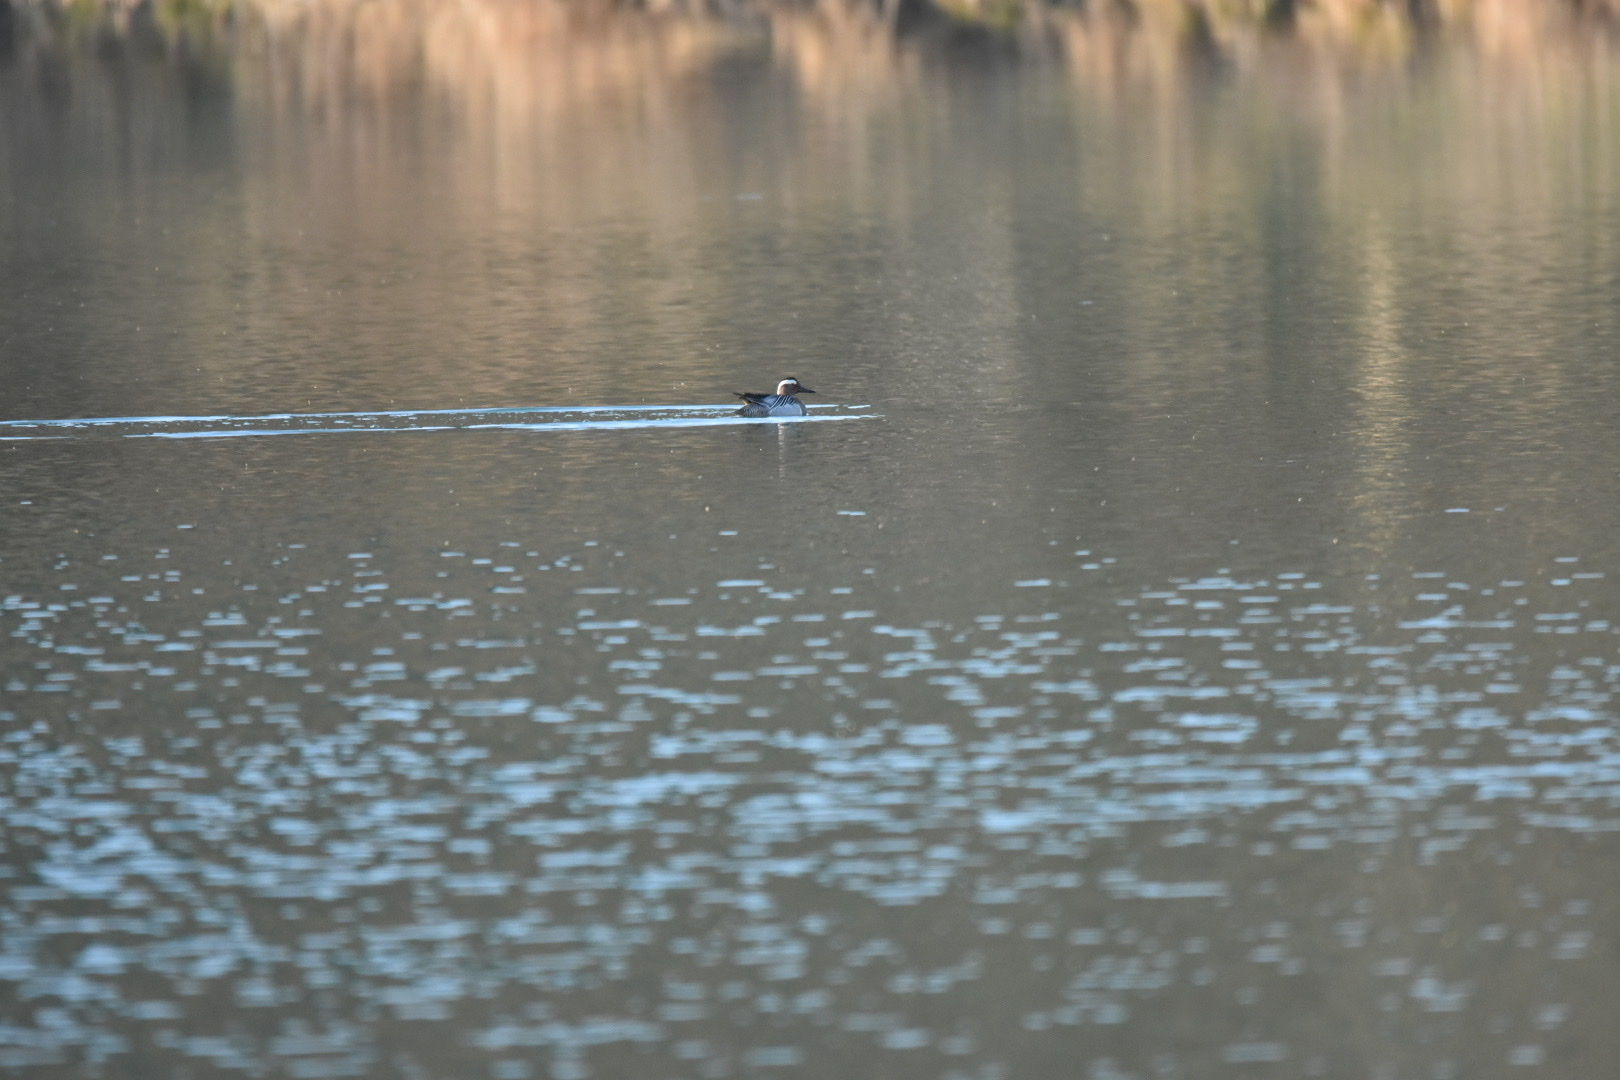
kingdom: Animalia
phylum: Chordata
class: Aves
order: Anseriformes
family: Anatidae
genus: Spatula
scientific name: Spatula querquedula
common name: Garganey
